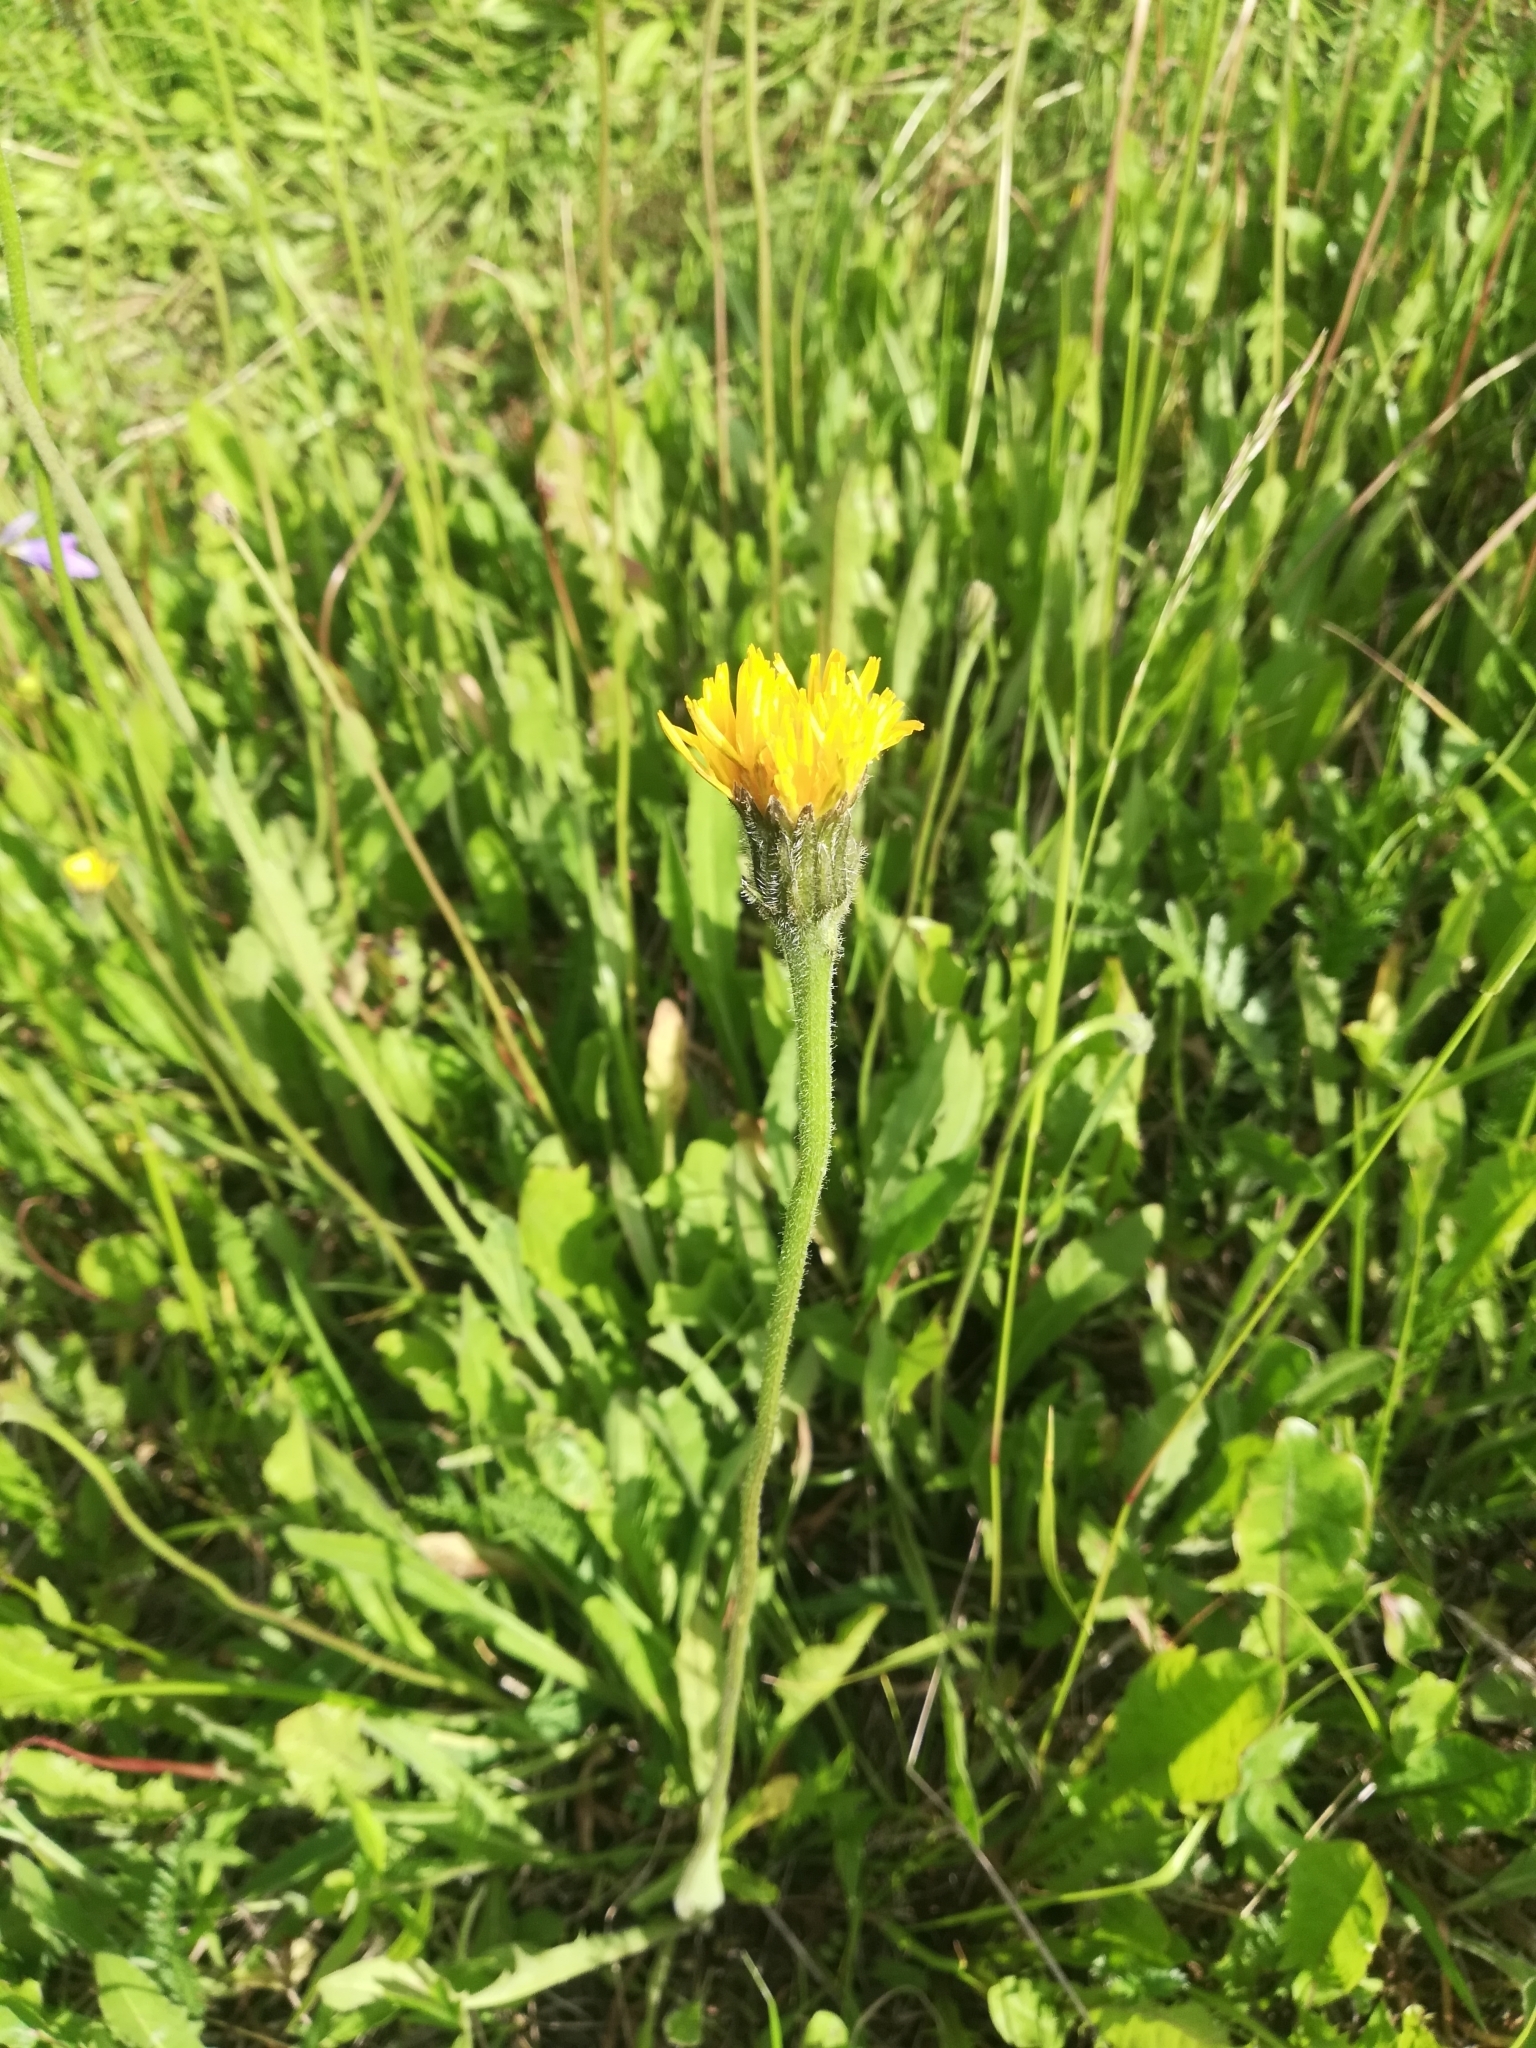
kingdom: Plantae
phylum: Tracheophyta
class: Magnoliopsida
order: Asterales
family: Asteraceae
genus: Leontodon
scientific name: Leontodon hispidus
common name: Rough hawkbit
